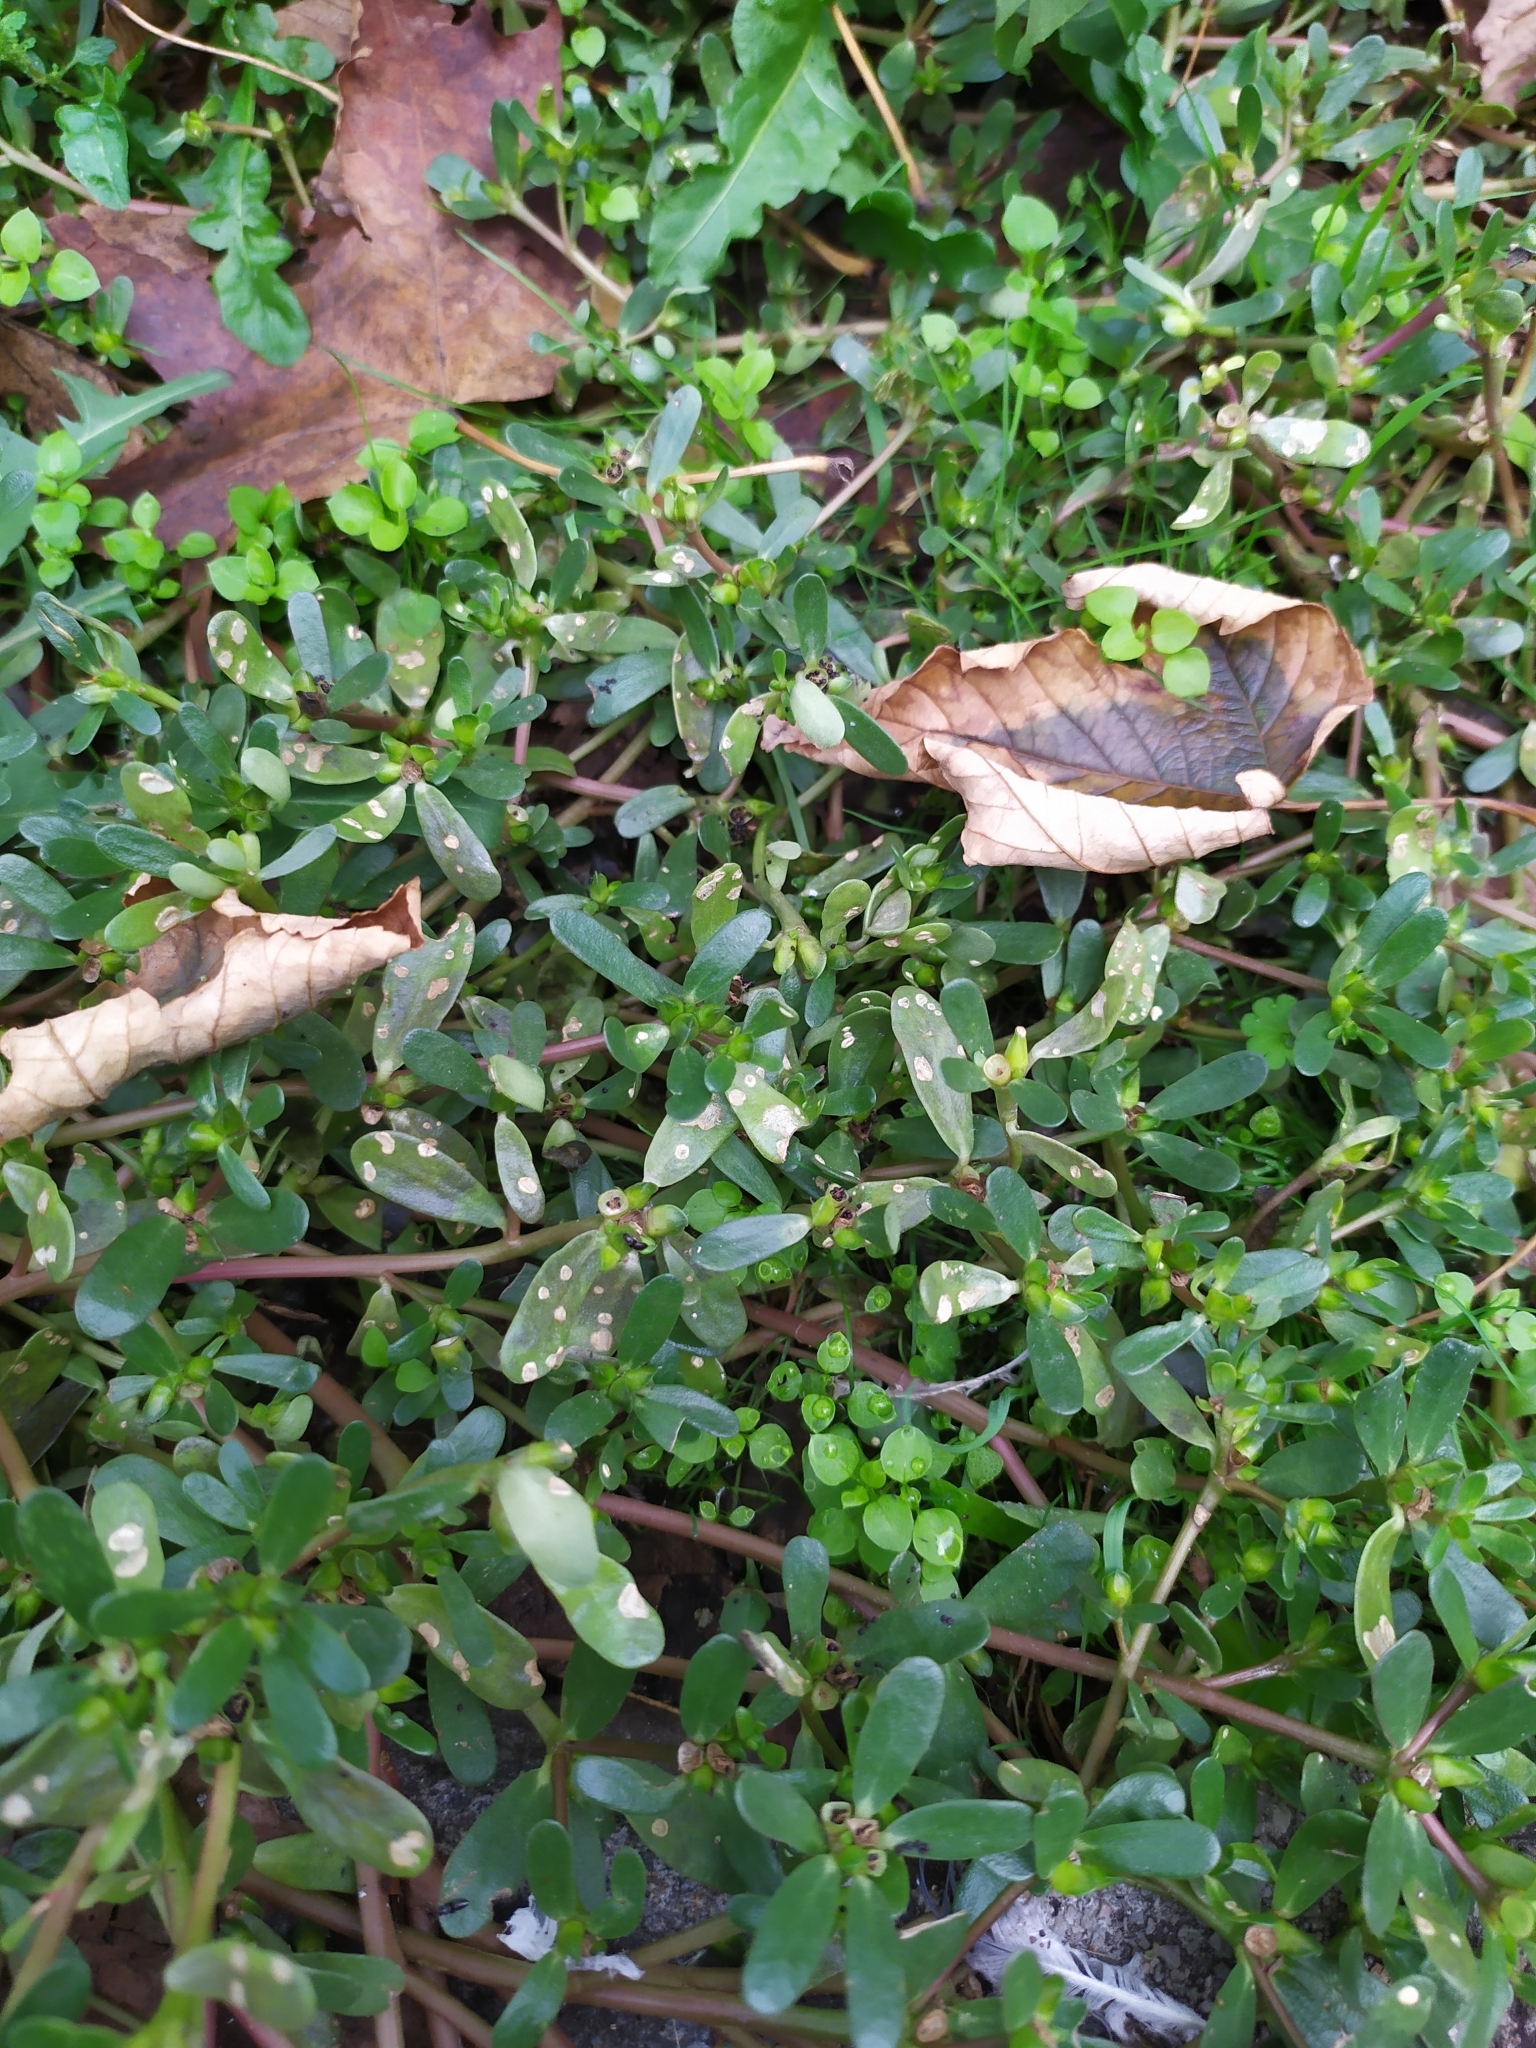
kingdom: Chromista
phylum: Oomycota
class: Peronosporea
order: Albuginales
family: Albuginaceae
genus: Wilsoniana
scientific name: Wilsoniana portulacae
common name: Purslane white rust
